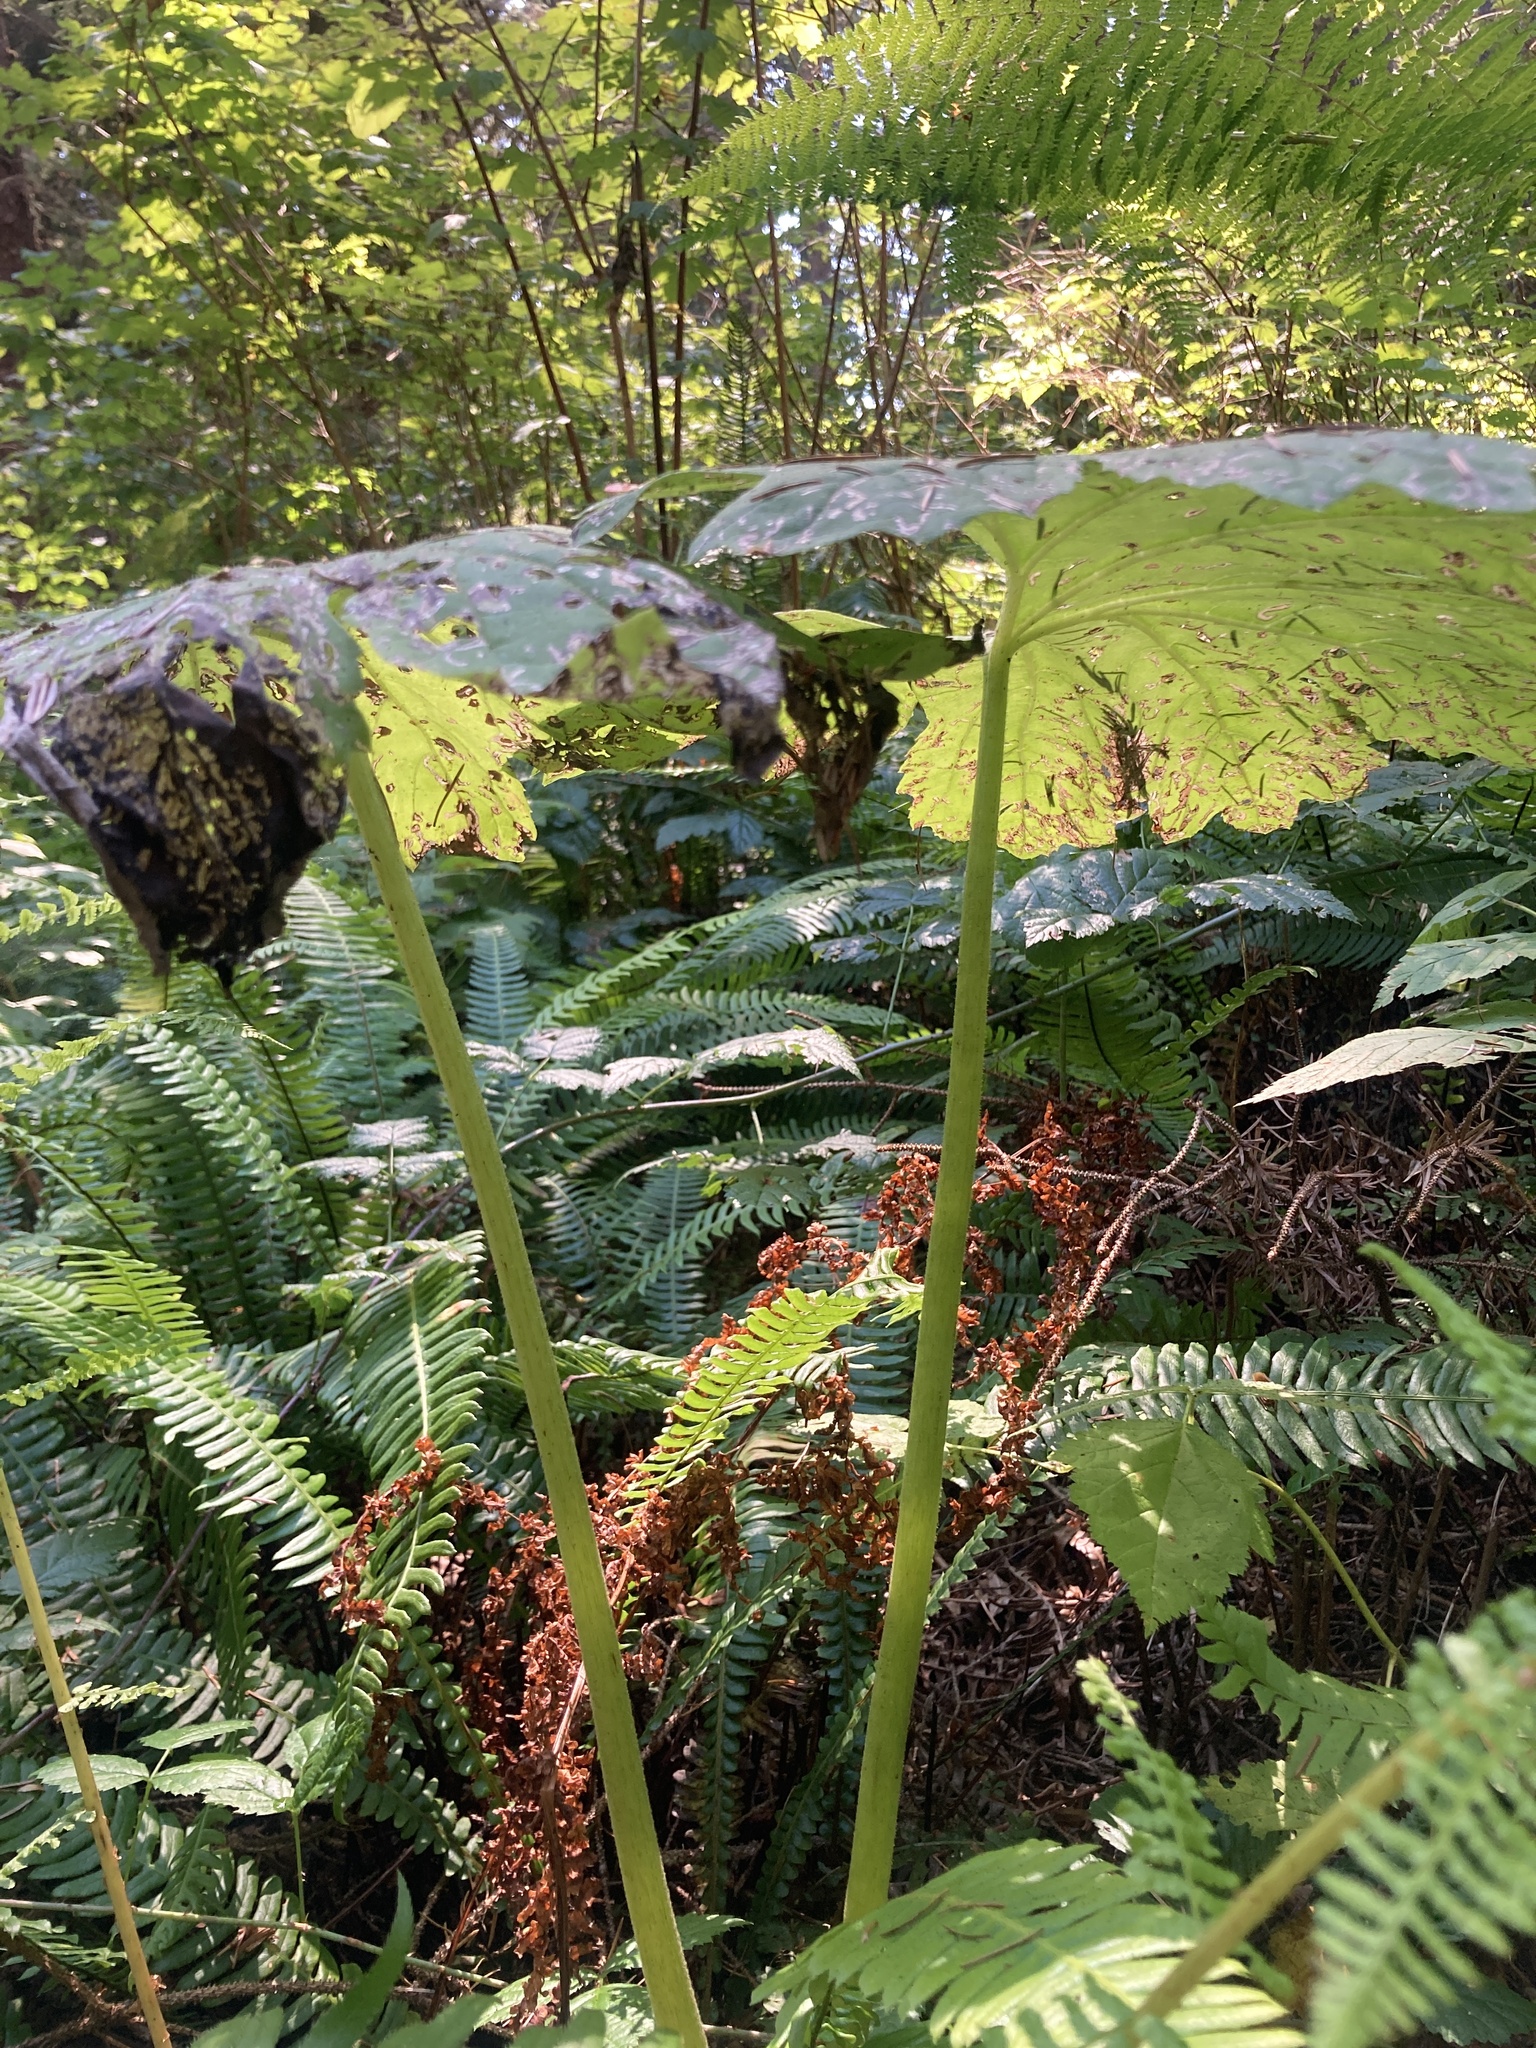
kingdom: Plantae
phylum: Tracheophyta
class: Magnoliopsida
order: Asterales
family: Asteraceae
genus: Petasites
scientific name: Petasites frigidus
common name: Arctic butterbur
